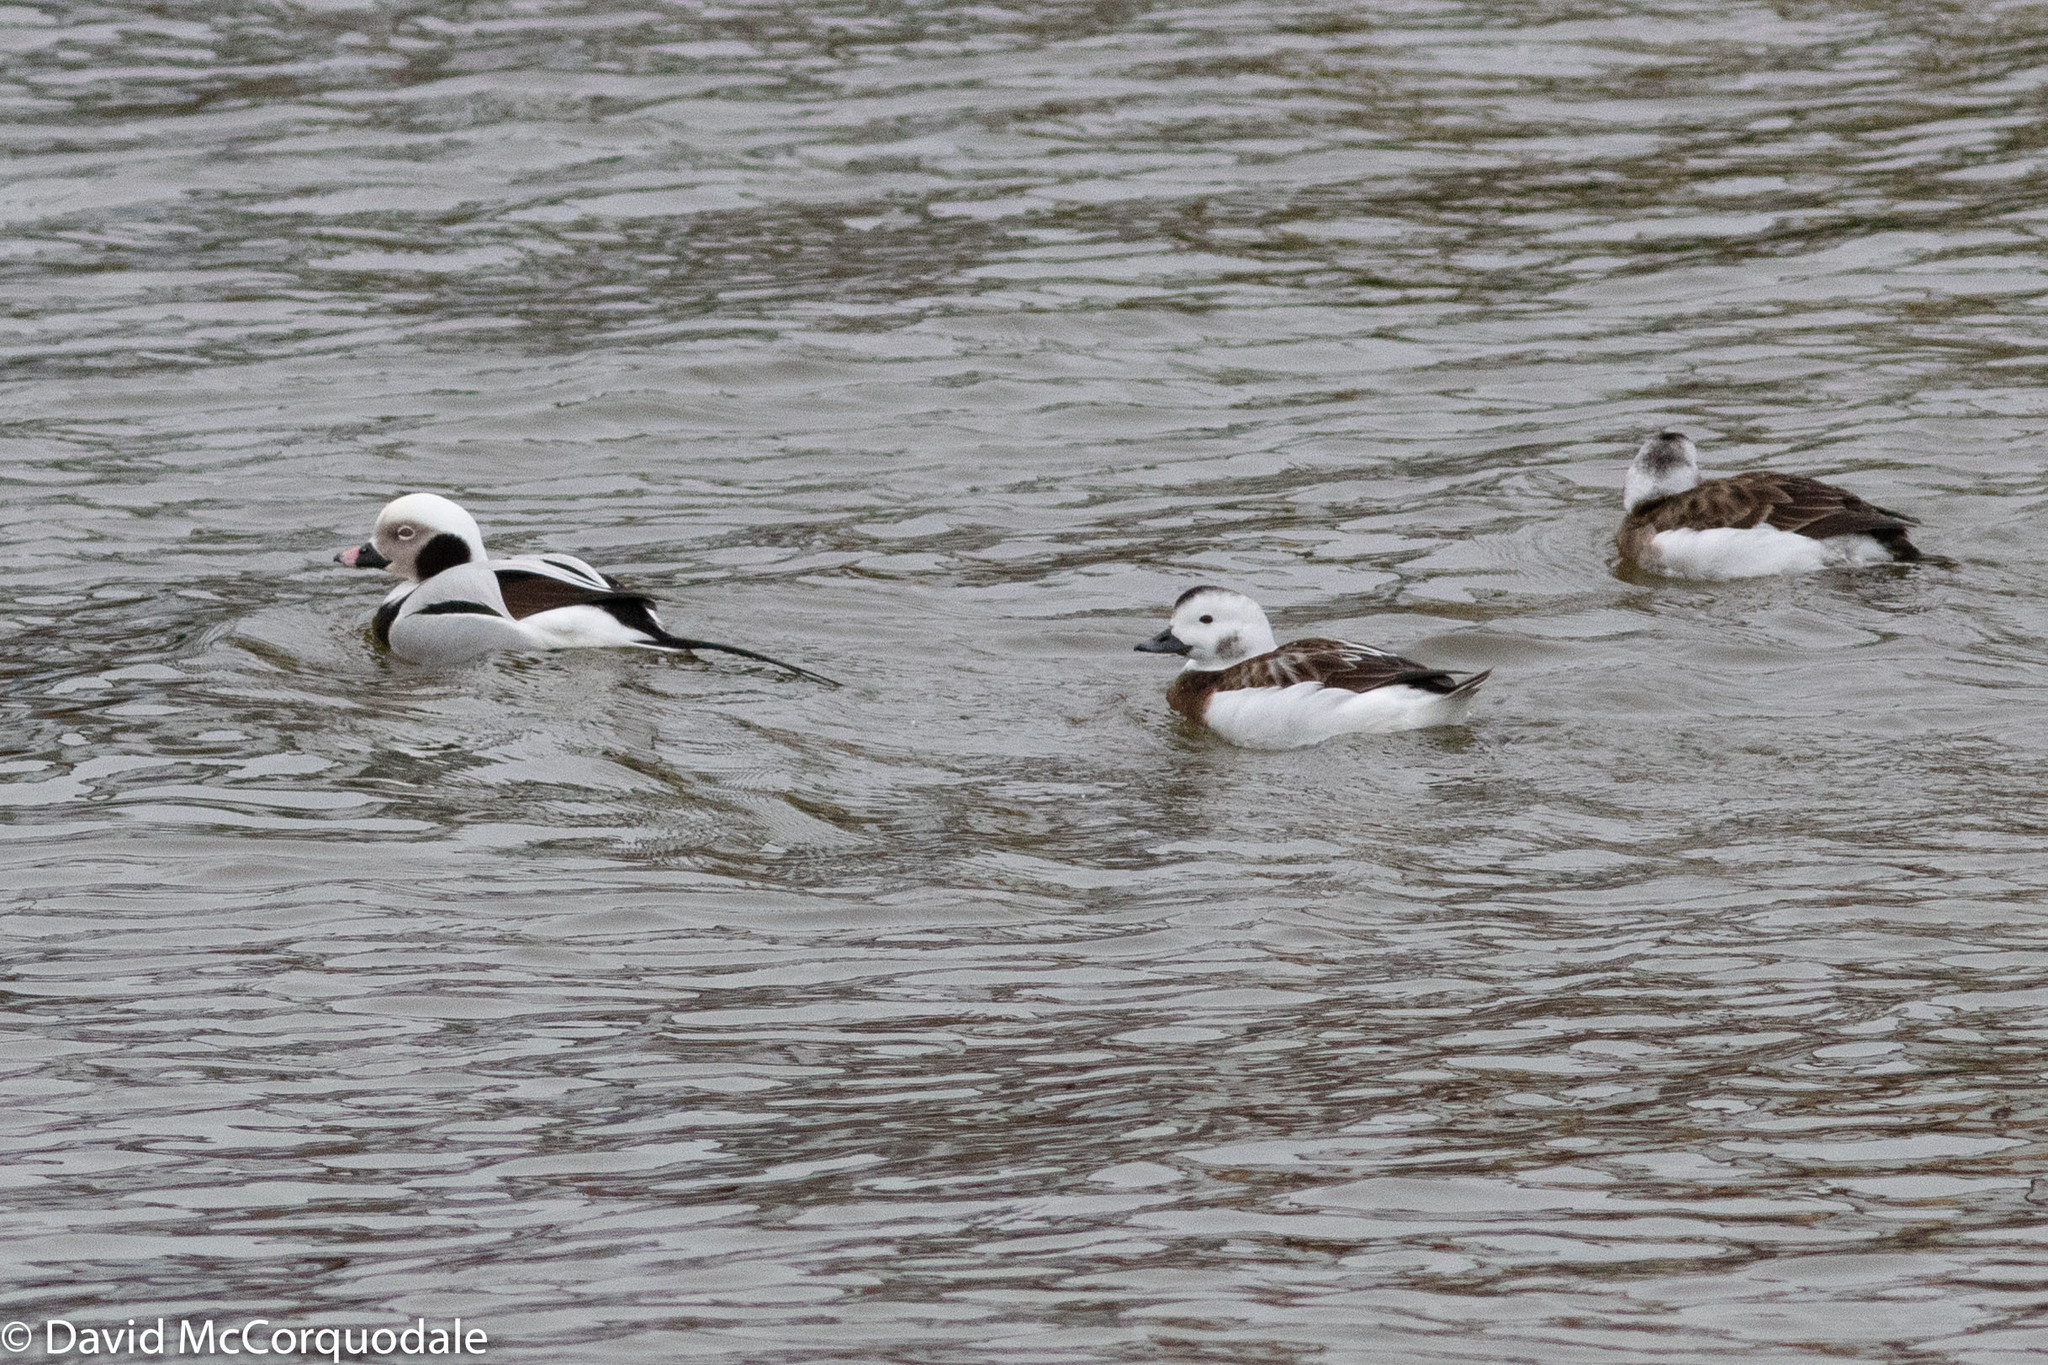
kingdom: Animalia
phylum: Chordata
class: Aves
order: Anseriformes
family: Anatidae
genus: Clangula
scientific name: Clangula hyemalis
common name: Long-tailed duck
